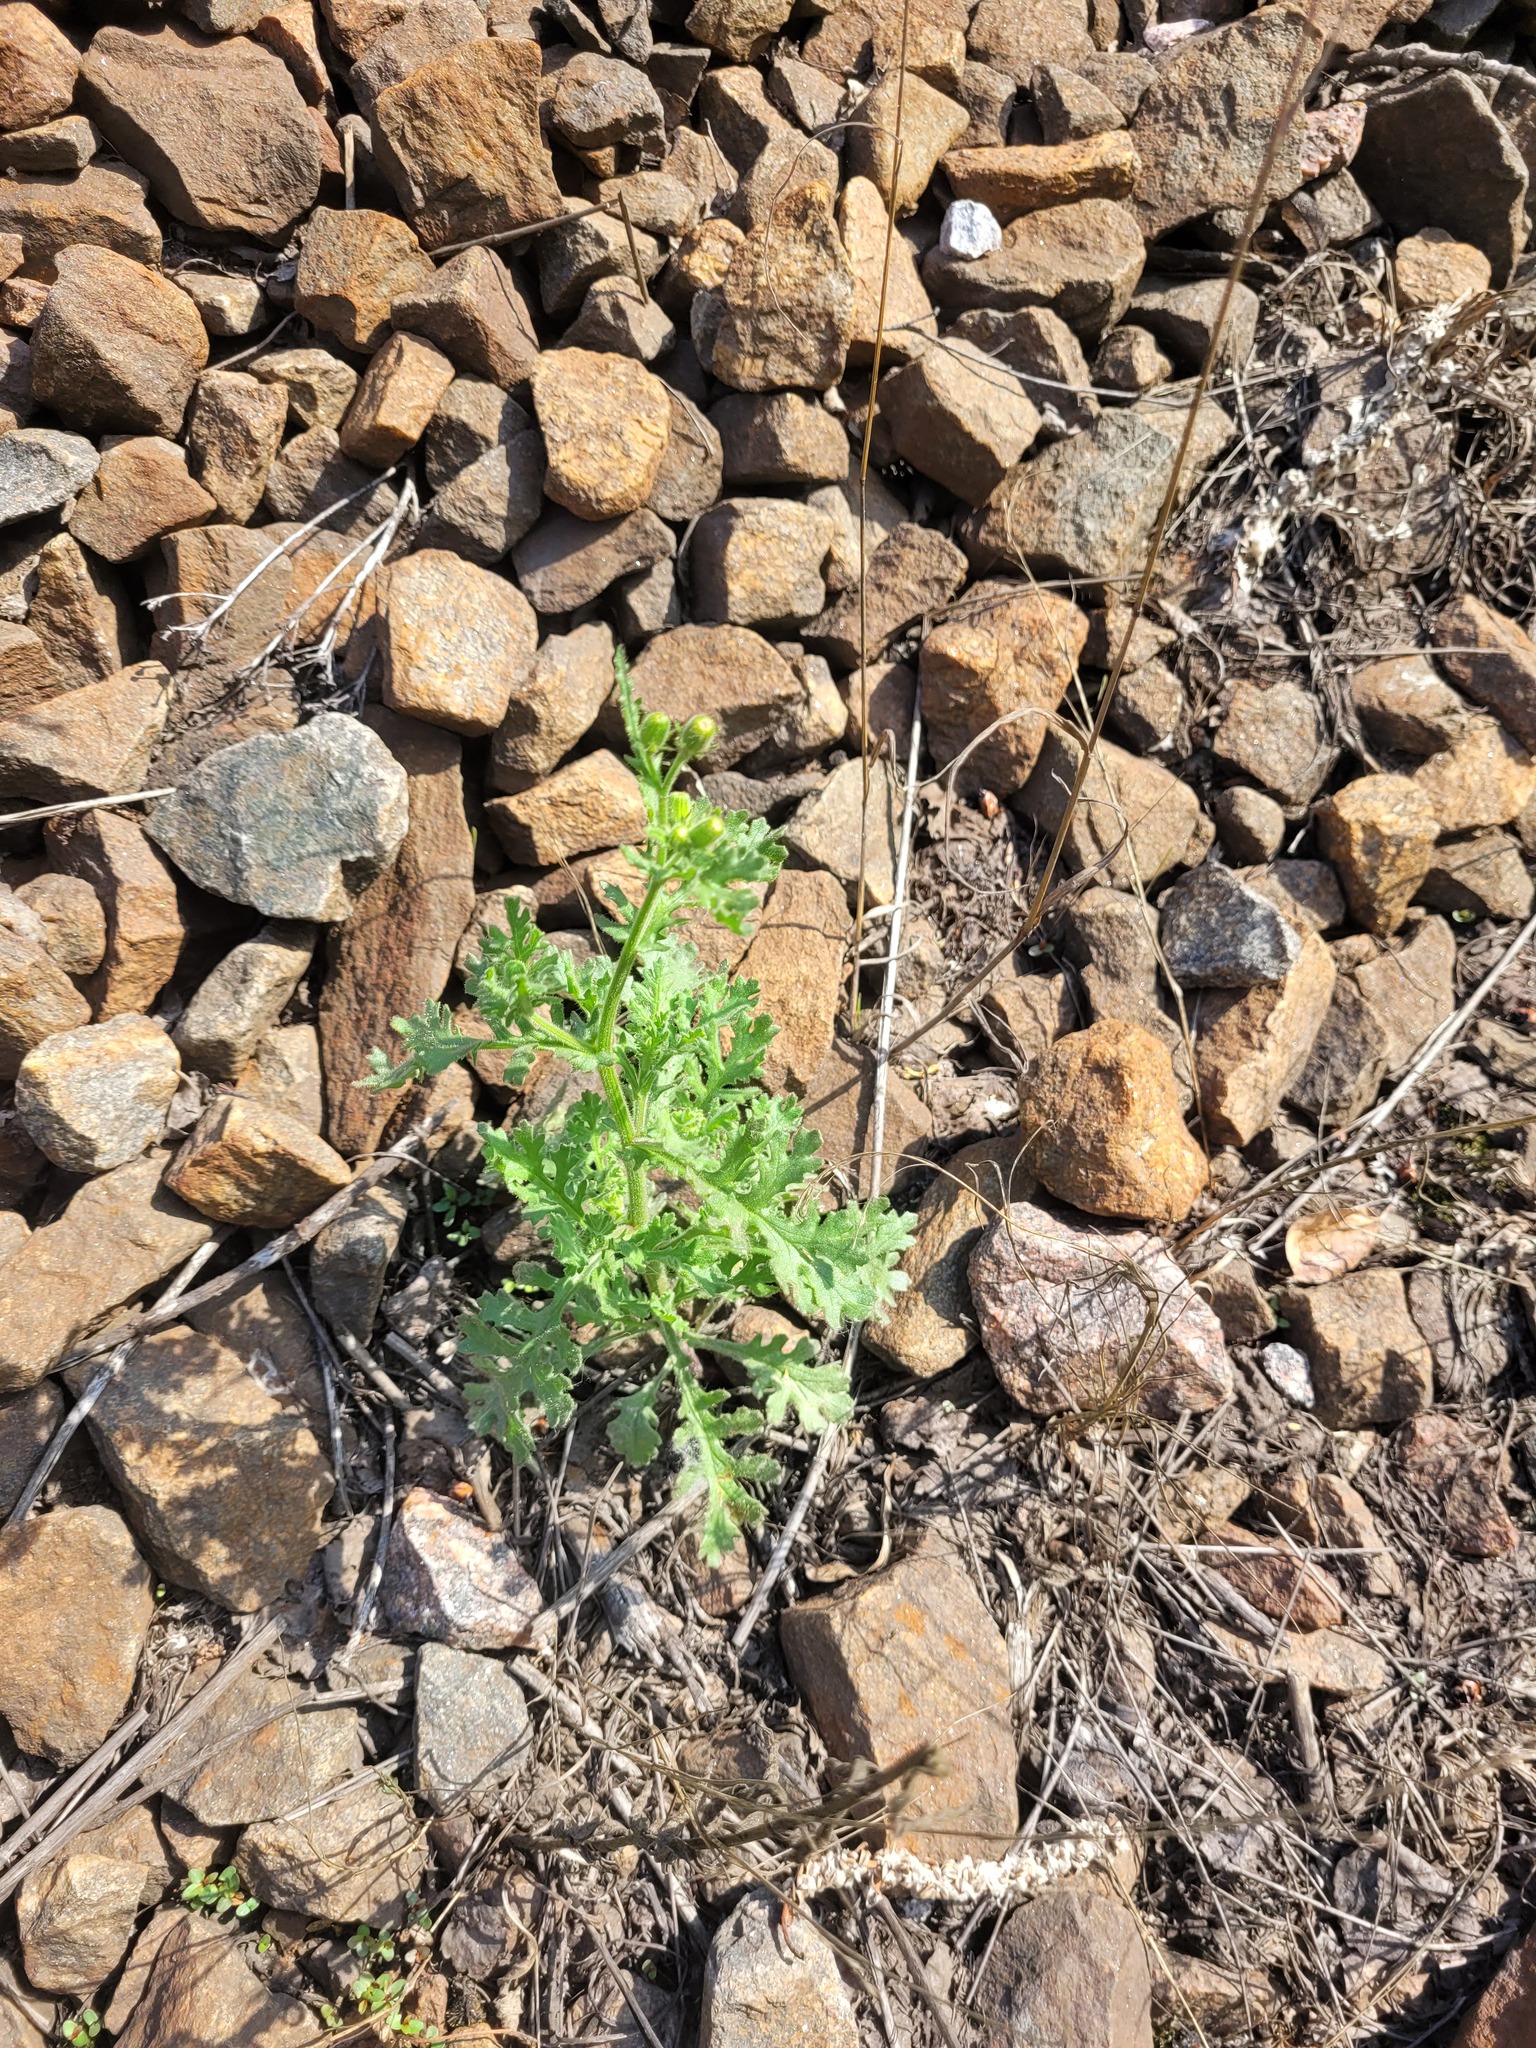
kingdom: Plantae
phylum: Tracheophyta
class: Magnoliopsida
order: Asterales
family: Asteraceae
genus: Senecio
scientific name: Senecio viscosus
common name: Sticky groundsel
